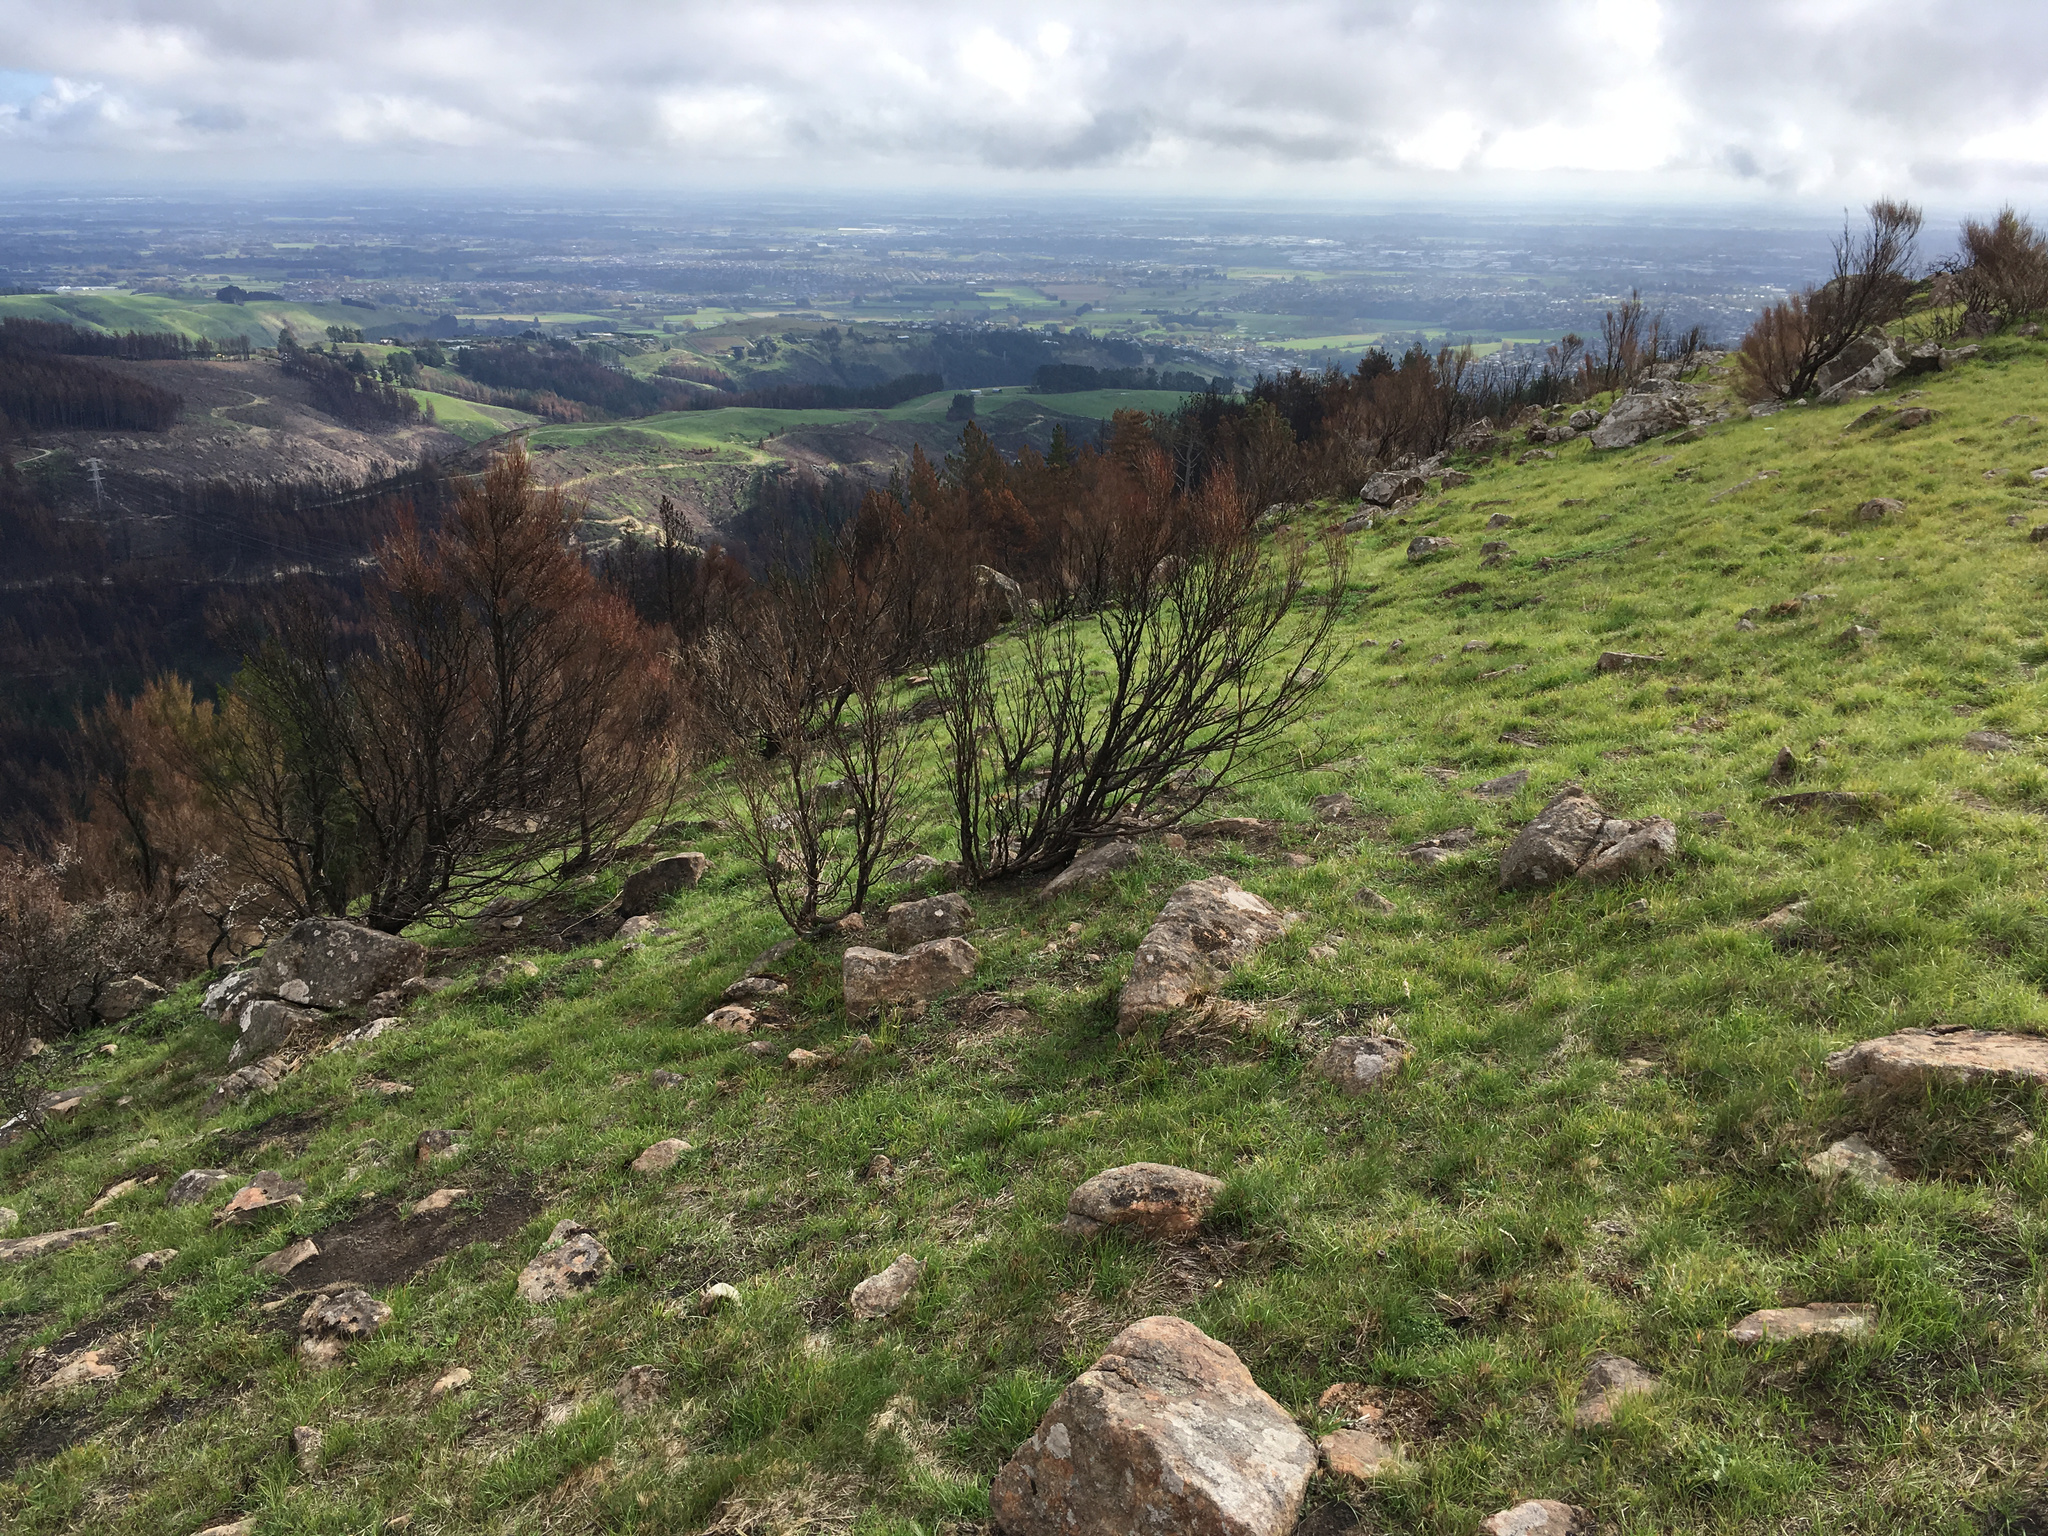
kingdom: Plantae
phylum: Tracheophyta
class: Magnoliopsida
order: Myrtales
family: Myrtaceae
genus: Kunzea
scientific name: Kunzea robusta
